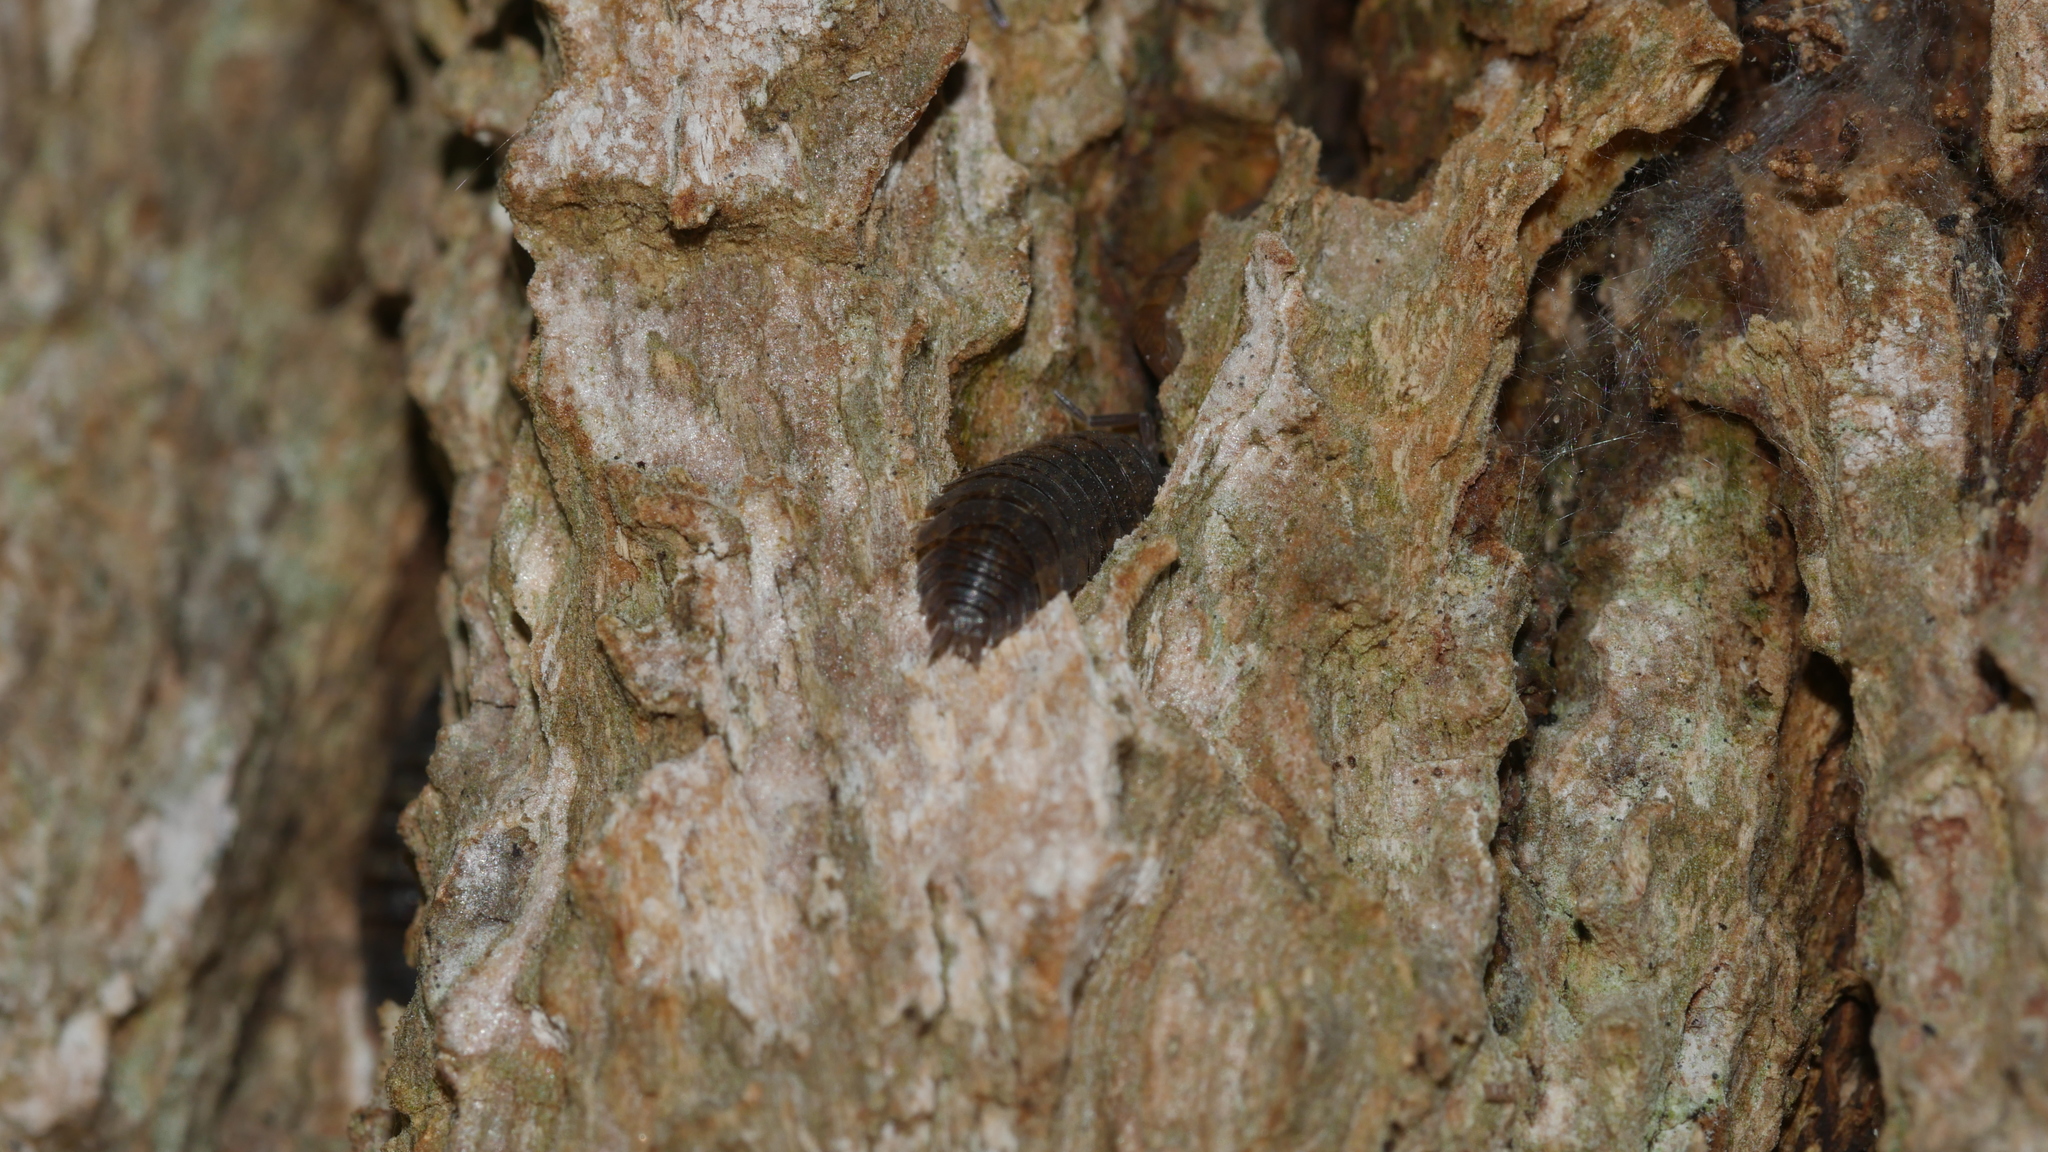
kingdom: Animalia
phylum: Arthropoda
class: Malacostraca
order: Isopoda
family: Porcellionidae
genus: Porcellio
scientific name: Porcellio scaber
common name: Common rough woodlouse
